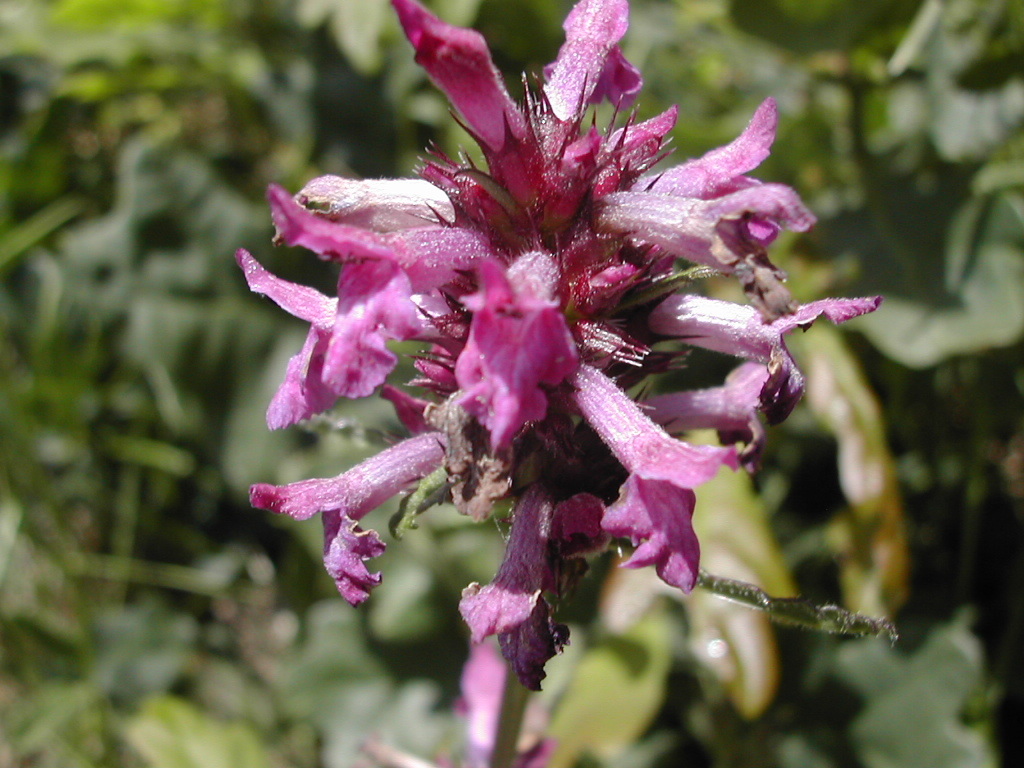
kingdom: Plantae
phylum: Tracheophyta
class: Magnoliopsida
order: Lamiales
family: Lamiaceae
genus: Betonica
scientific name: Betonica officinalis
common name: Bishop's-wort
